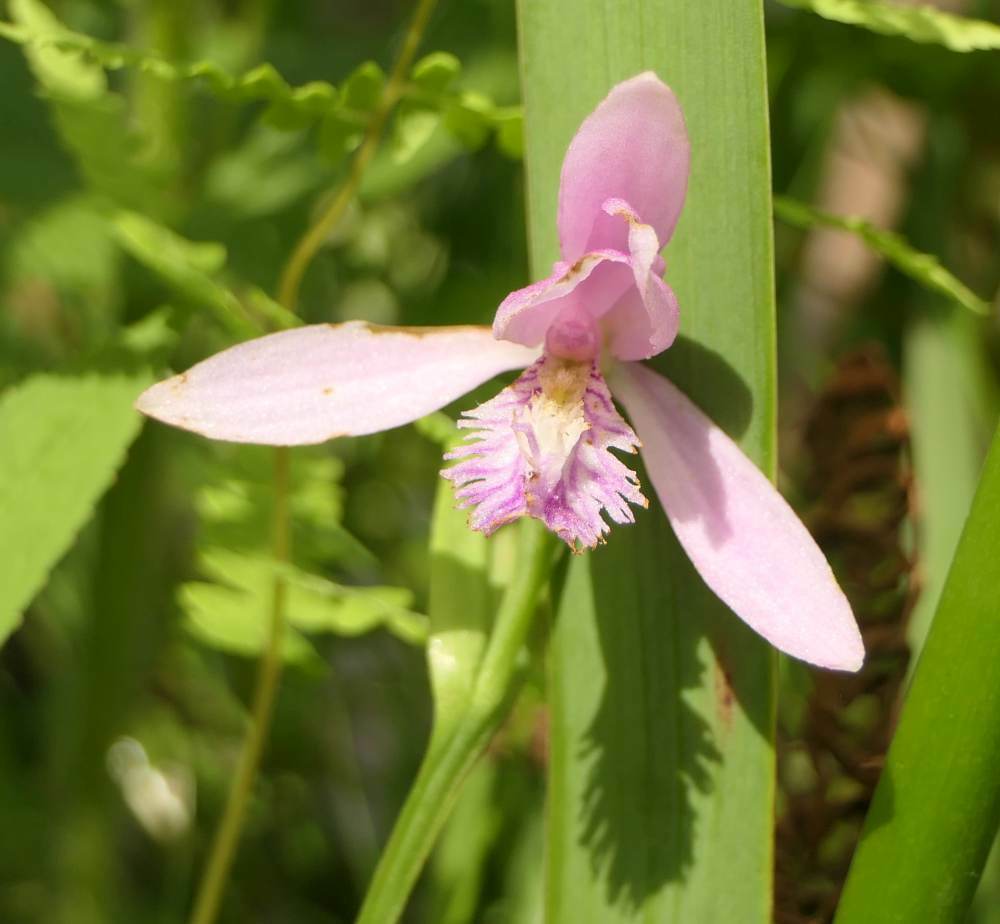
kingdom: Plantae
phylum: Tracheophyta
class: Liliopsida
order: Asparagales
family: Orchidaceae
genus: Pogonia
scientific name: Pogonia ophioglossoides
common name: Rose pogonia
